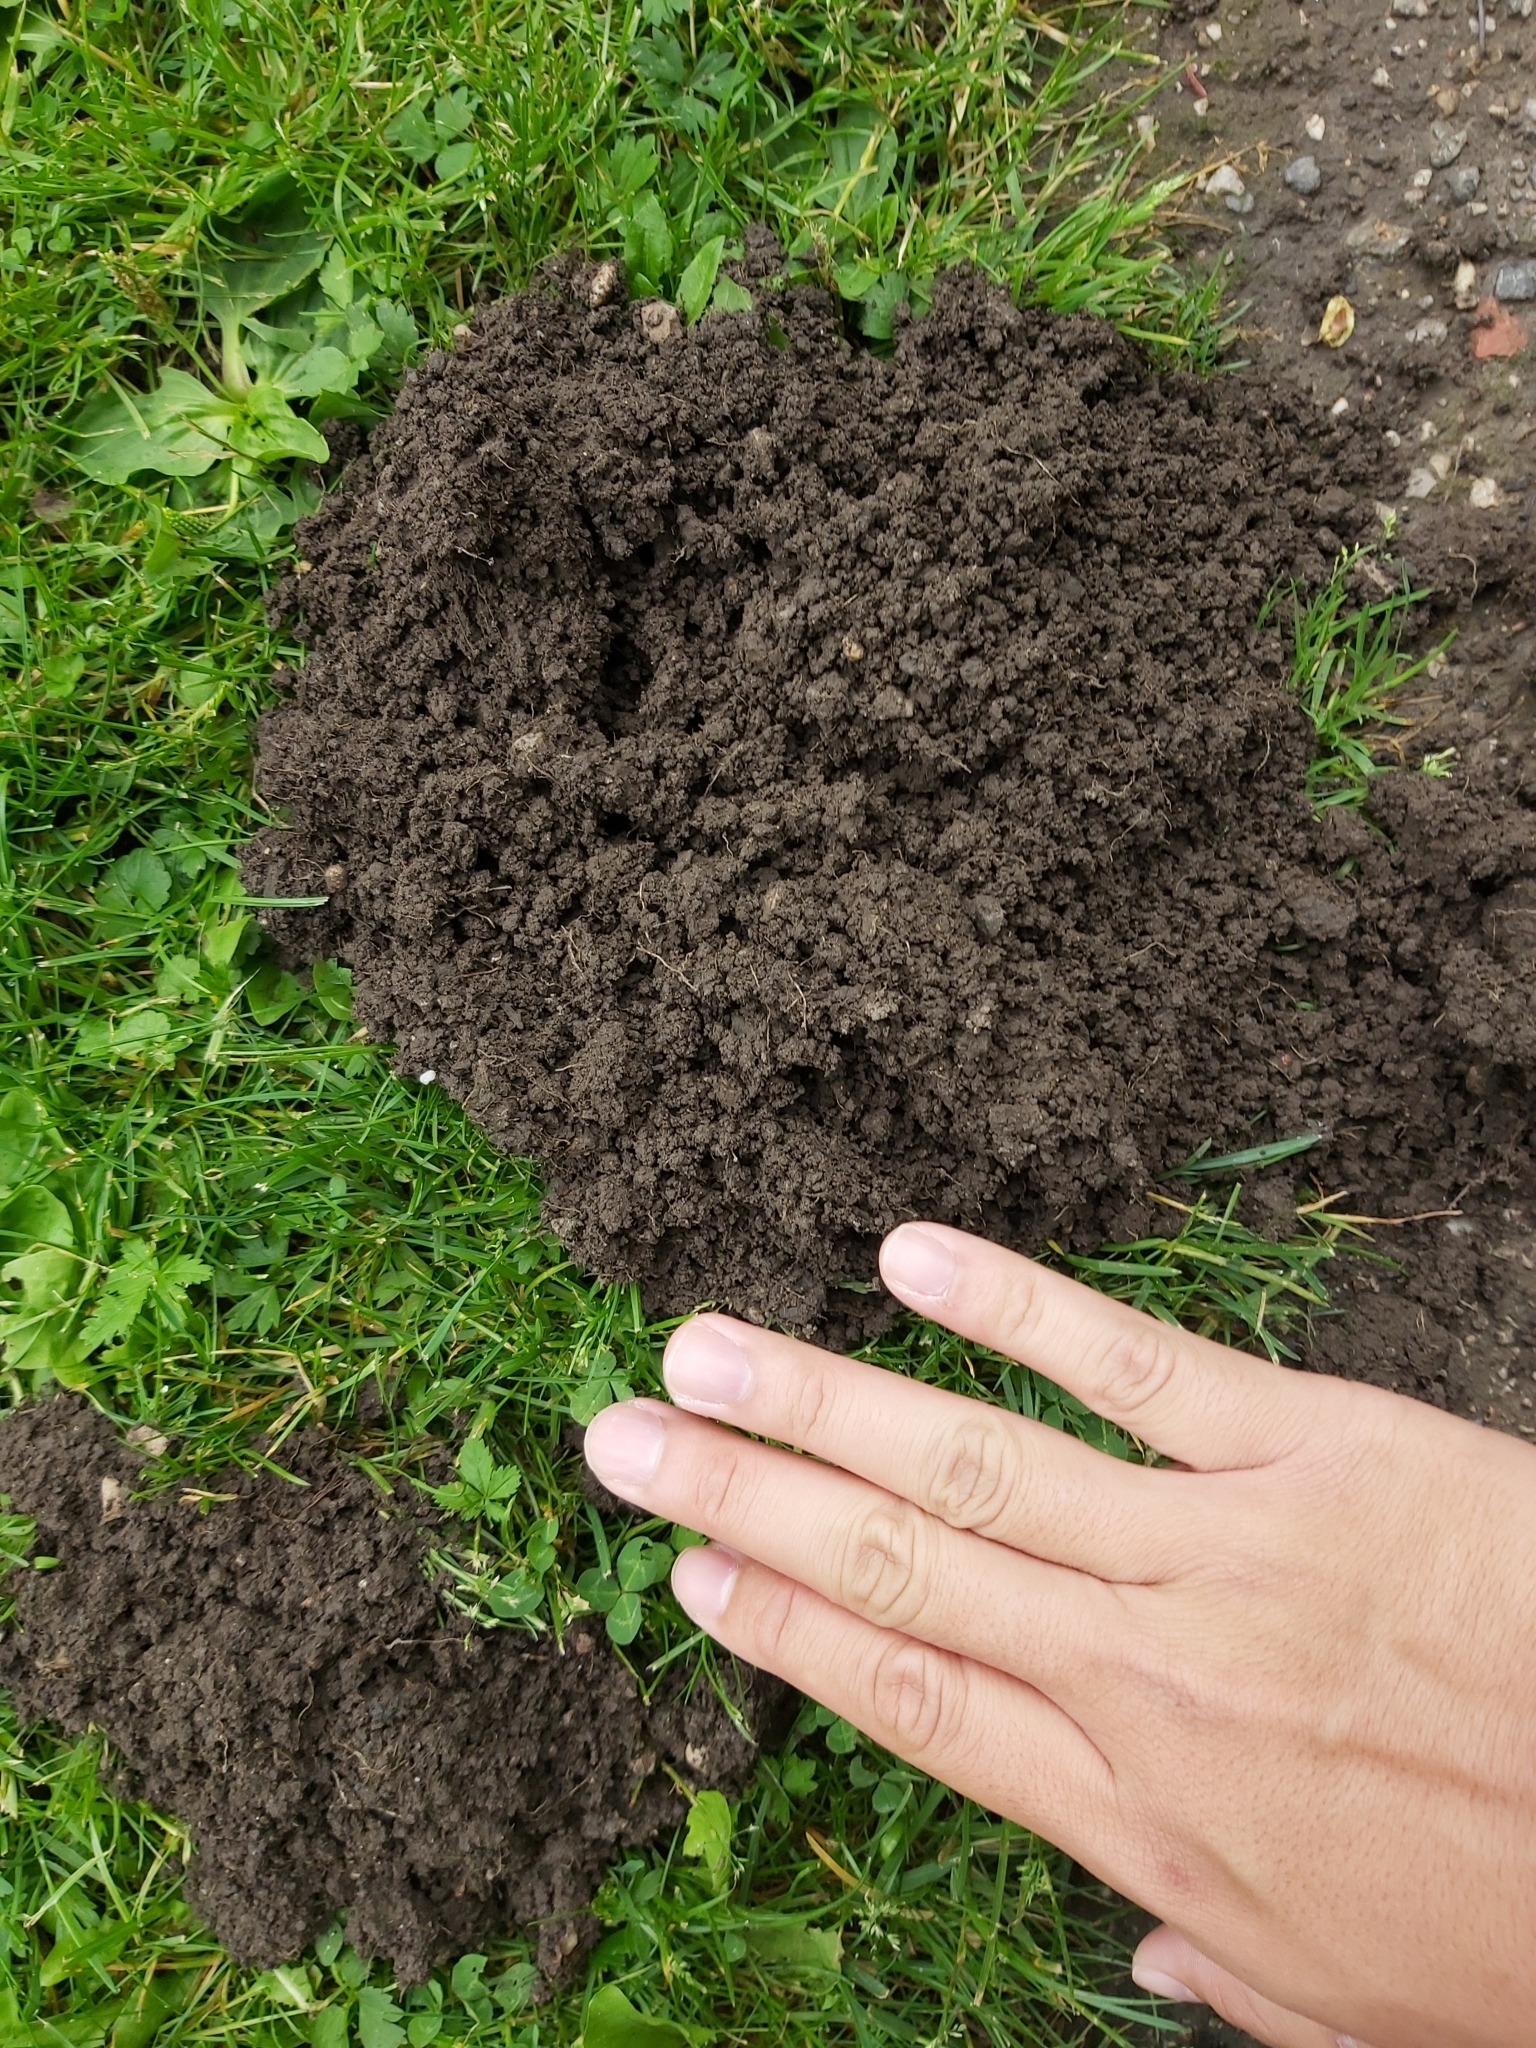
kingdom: Animalia
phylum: Chordata
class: Mammalia
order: Soricomorpha
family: Talpidae
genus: Talpa
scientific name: Talpa europaea
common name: European mole
